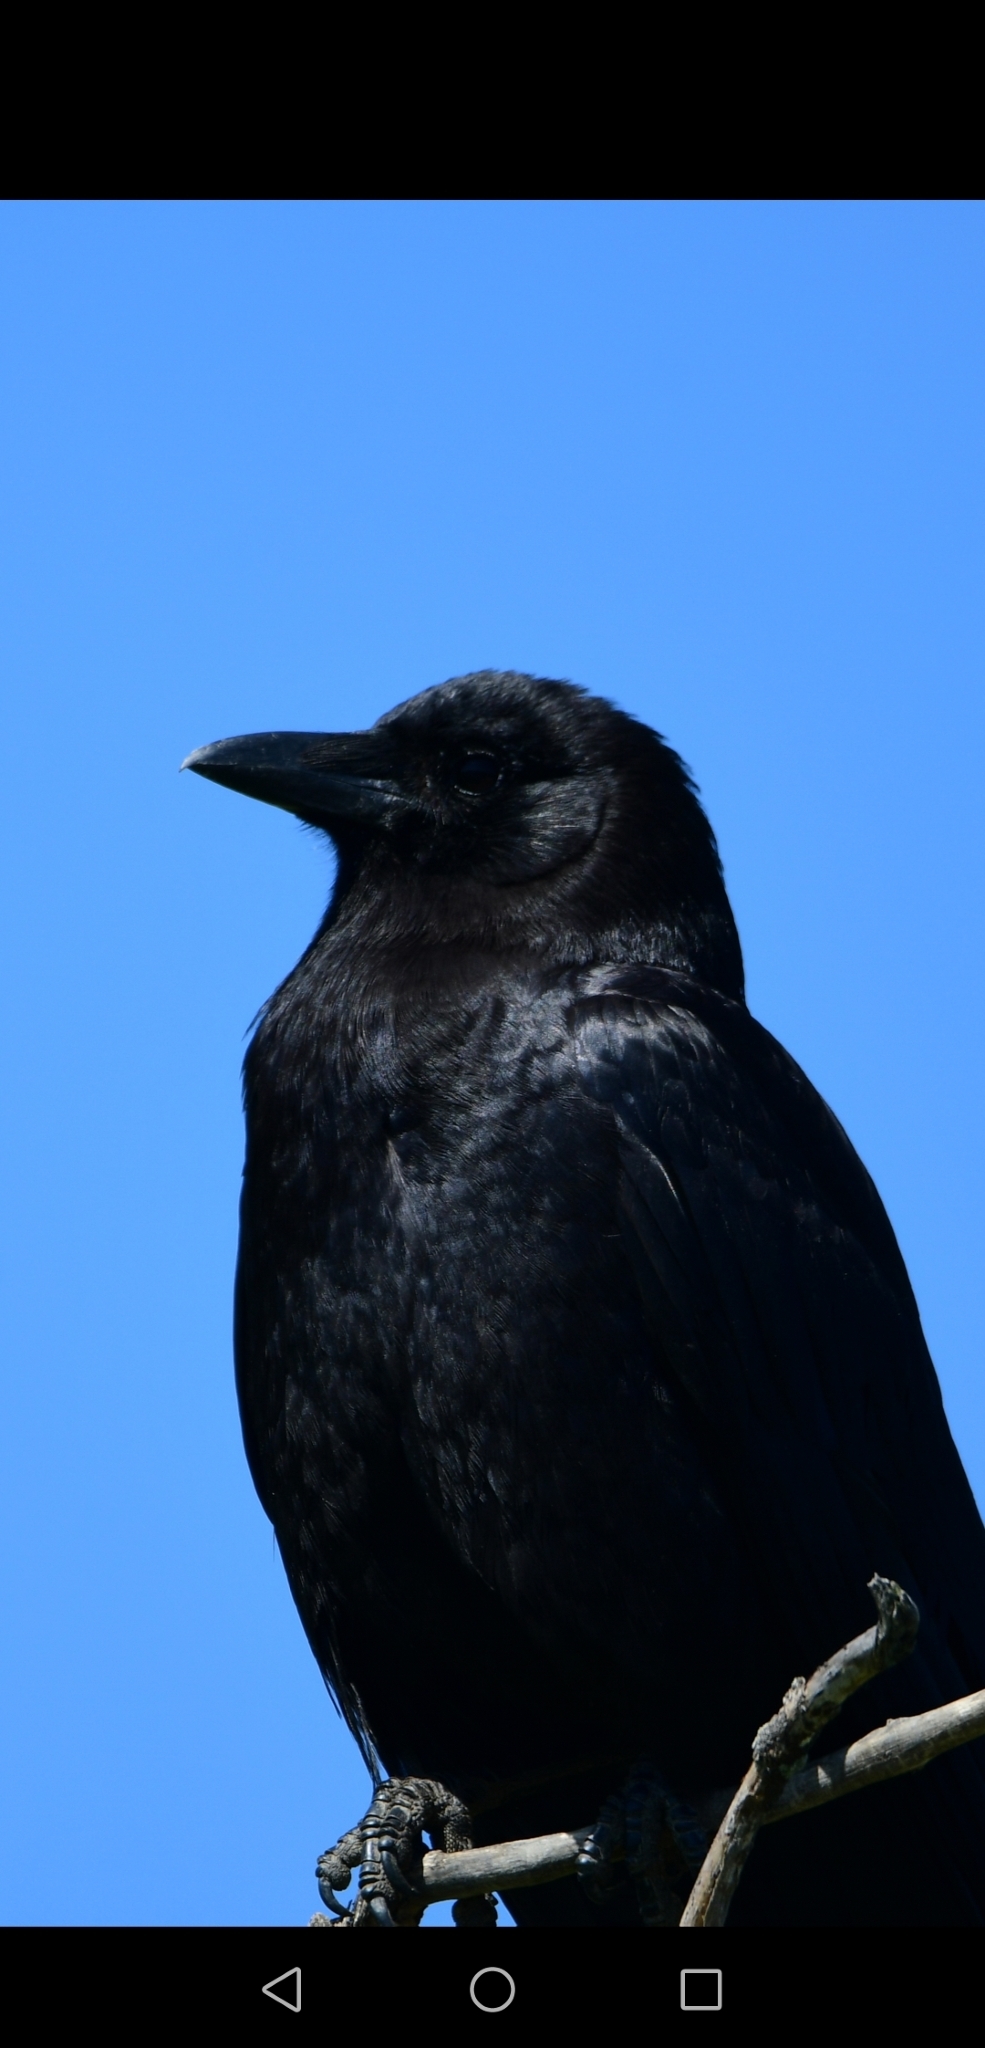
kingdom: Animalia
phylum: Chordata
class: Aves
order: Passeriformes
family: Corvidae
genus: Corvus
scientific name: Corvus brachyrhynchos
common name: American crow
